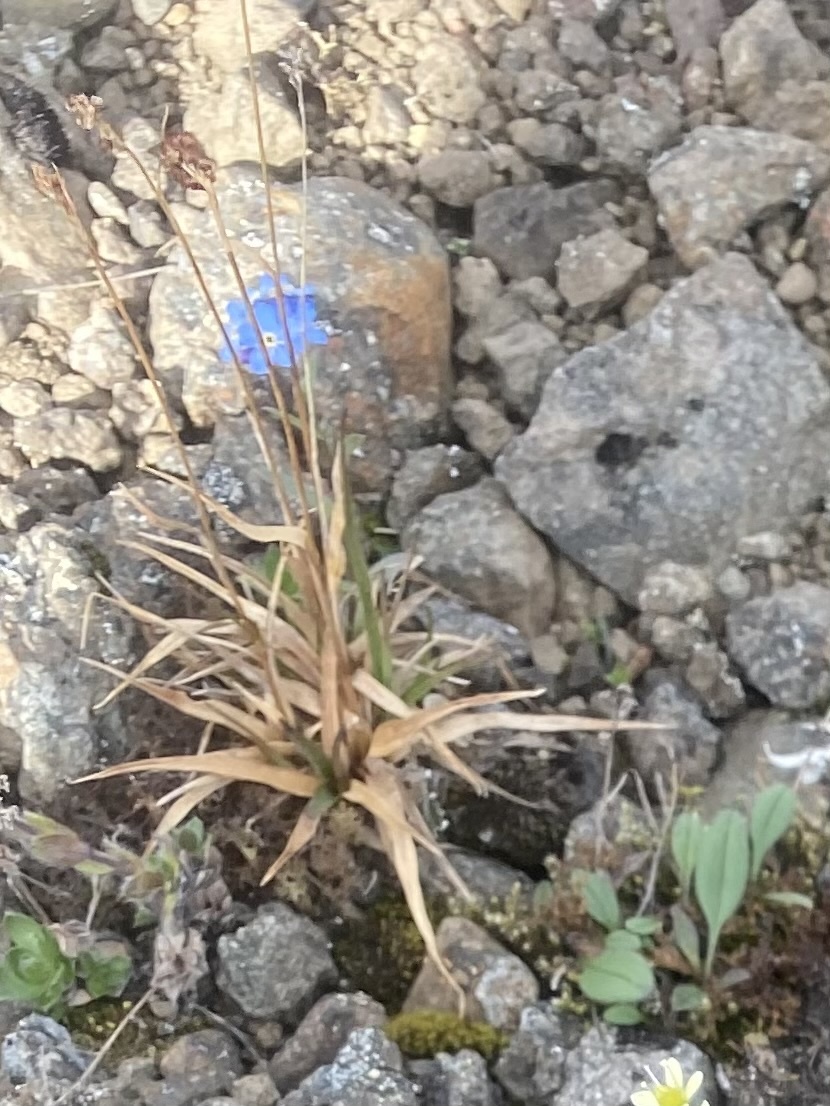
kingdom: Plantae
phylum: Tracheophyta
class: Magnoliopsida
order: Boraginales
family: Boraginaceae
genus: Myosotis
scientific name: Myosotis asiatica
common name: Asian forget-me-not
